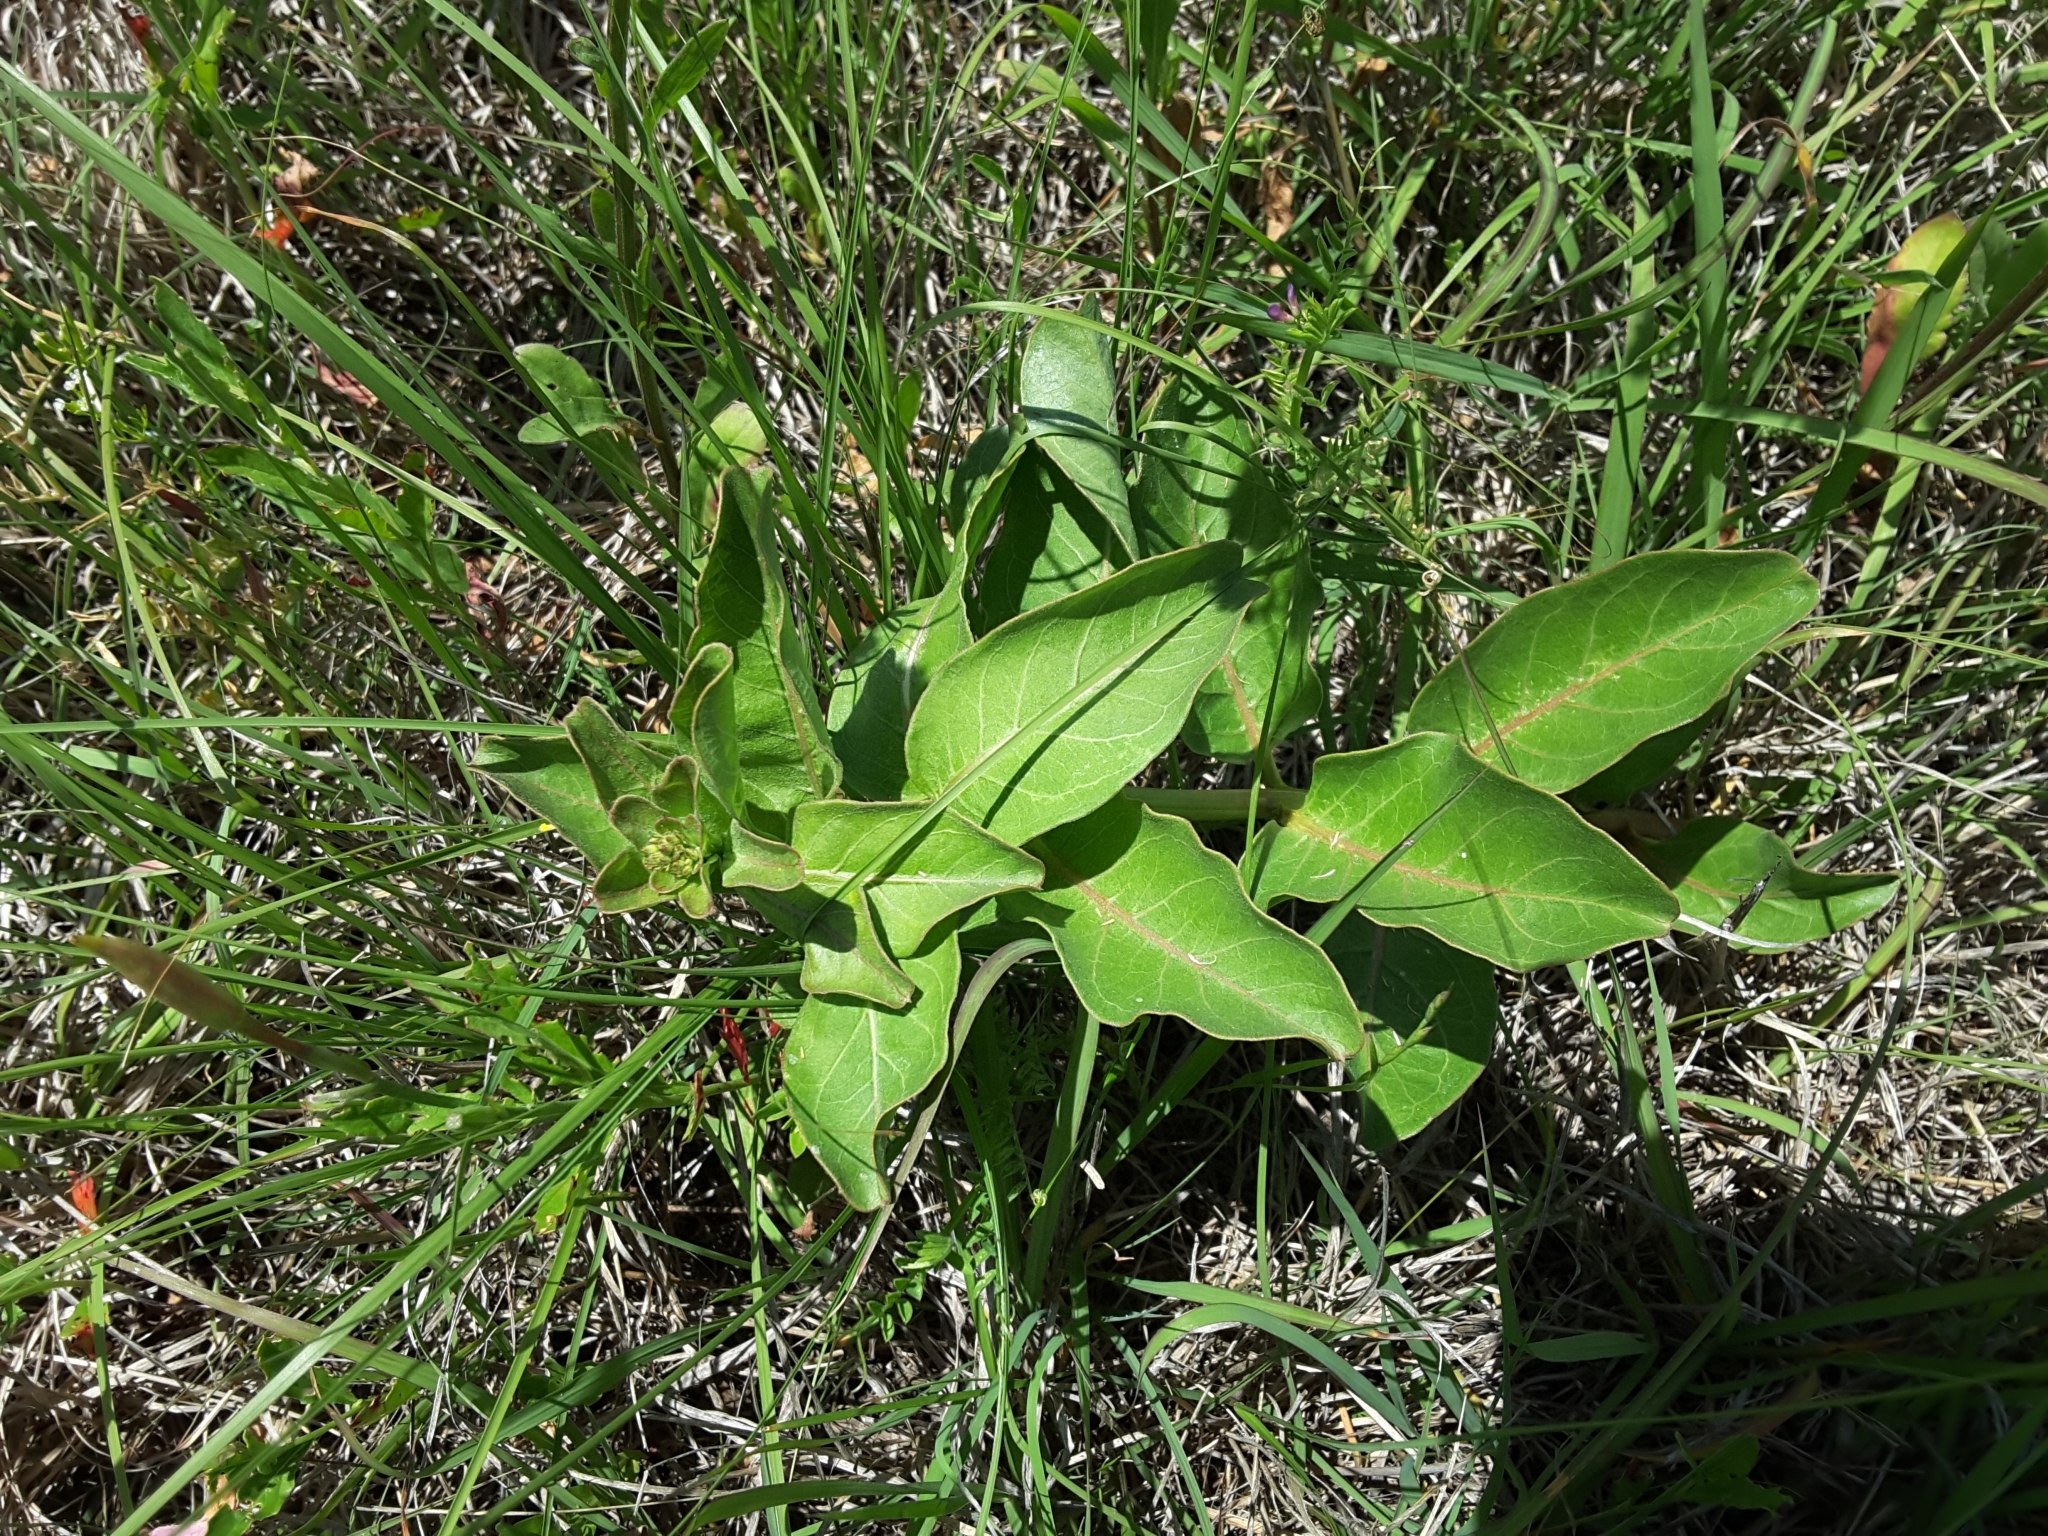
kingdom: Plantae
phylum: Tracheophyta
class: Magnoliopsida
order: Gentianales
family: Apocynaceae
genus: Asclepias
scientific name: Asclepias viridis
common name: Antelope-horns
